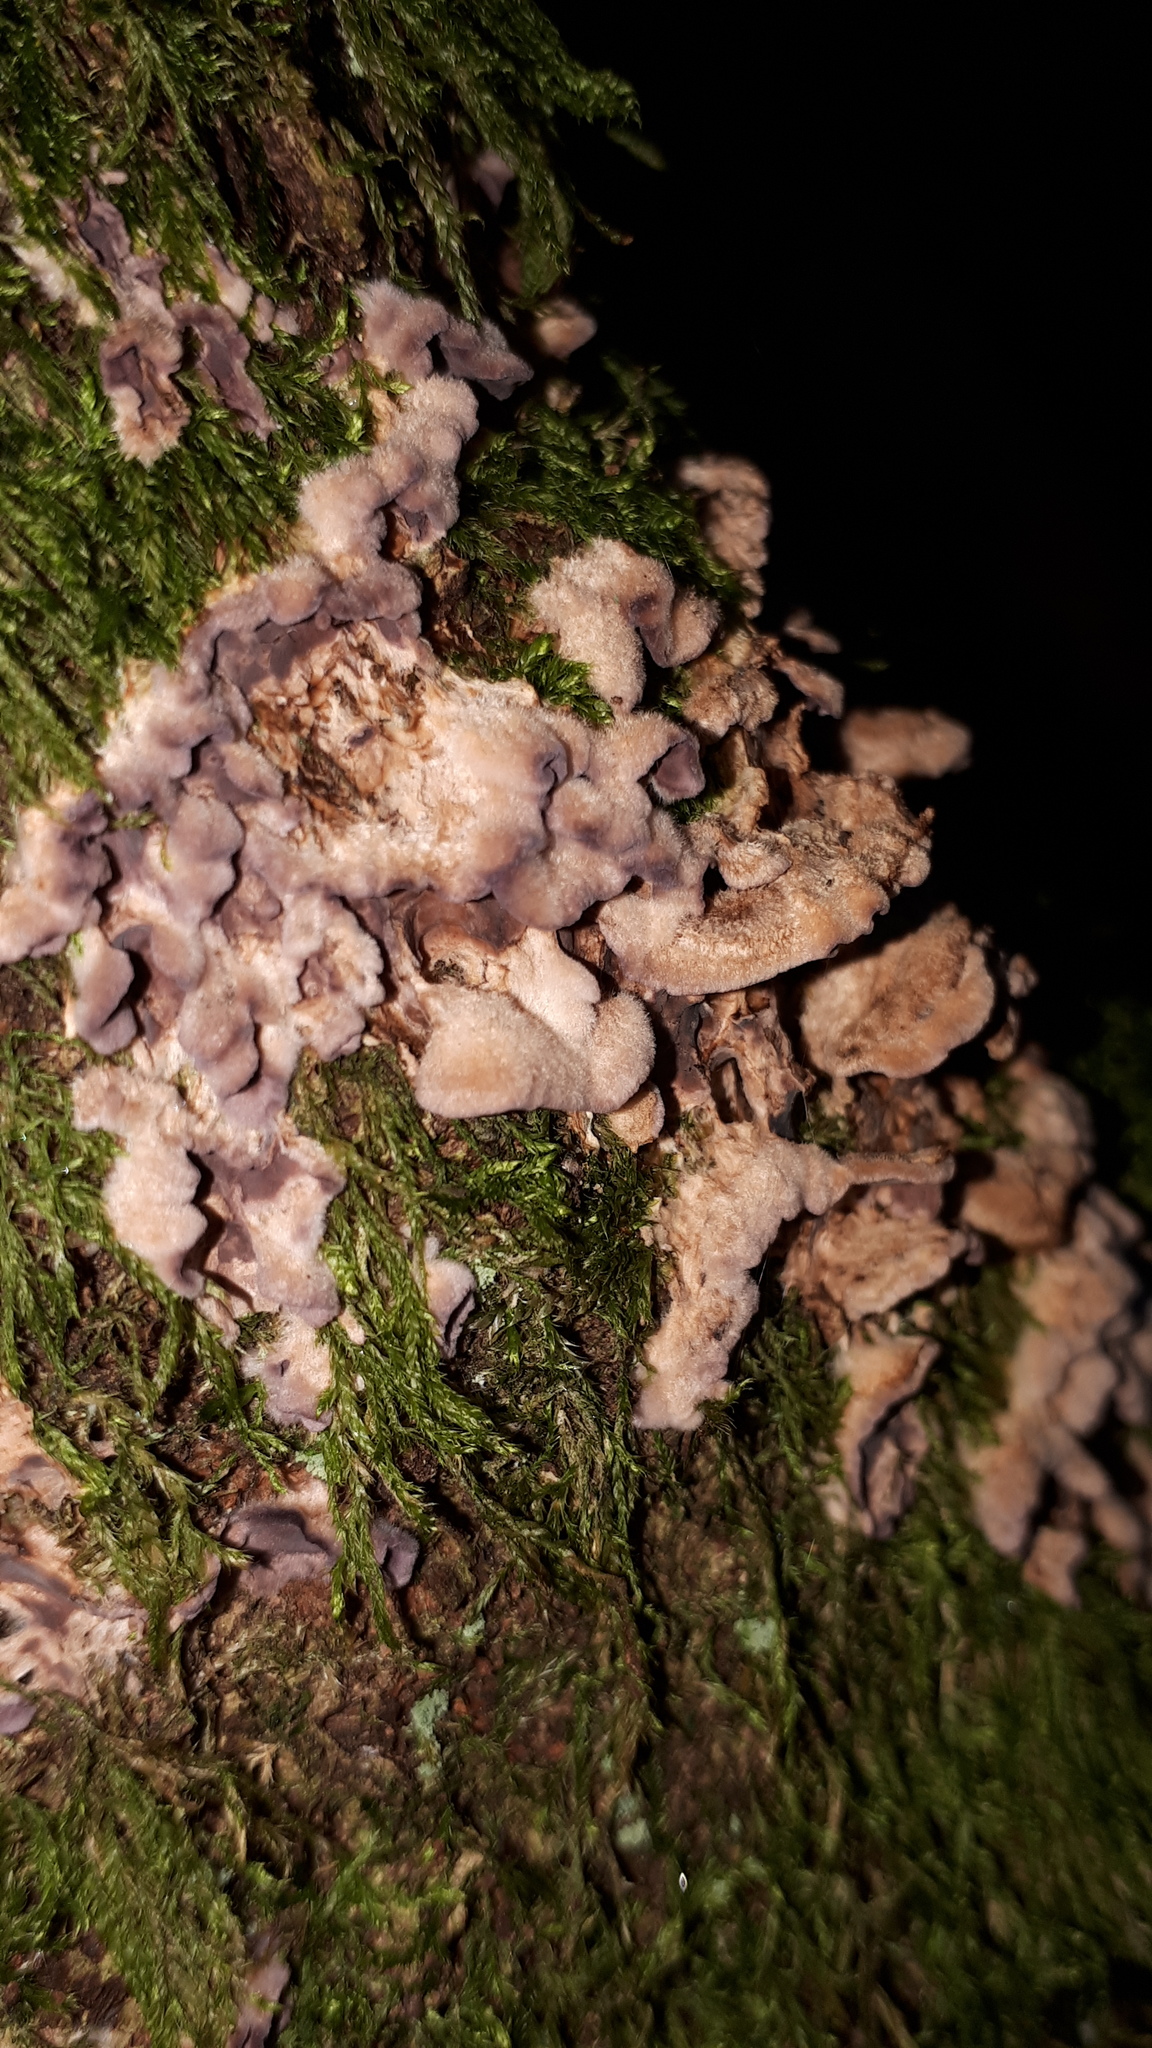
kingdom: Fungi
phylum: Basidiomycota
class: Agaricomycetes
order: Agaricales
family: Cyphellaceae
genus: Chondrostereum
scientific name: Chondrostereum purpureum
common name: Silver leaf disease
